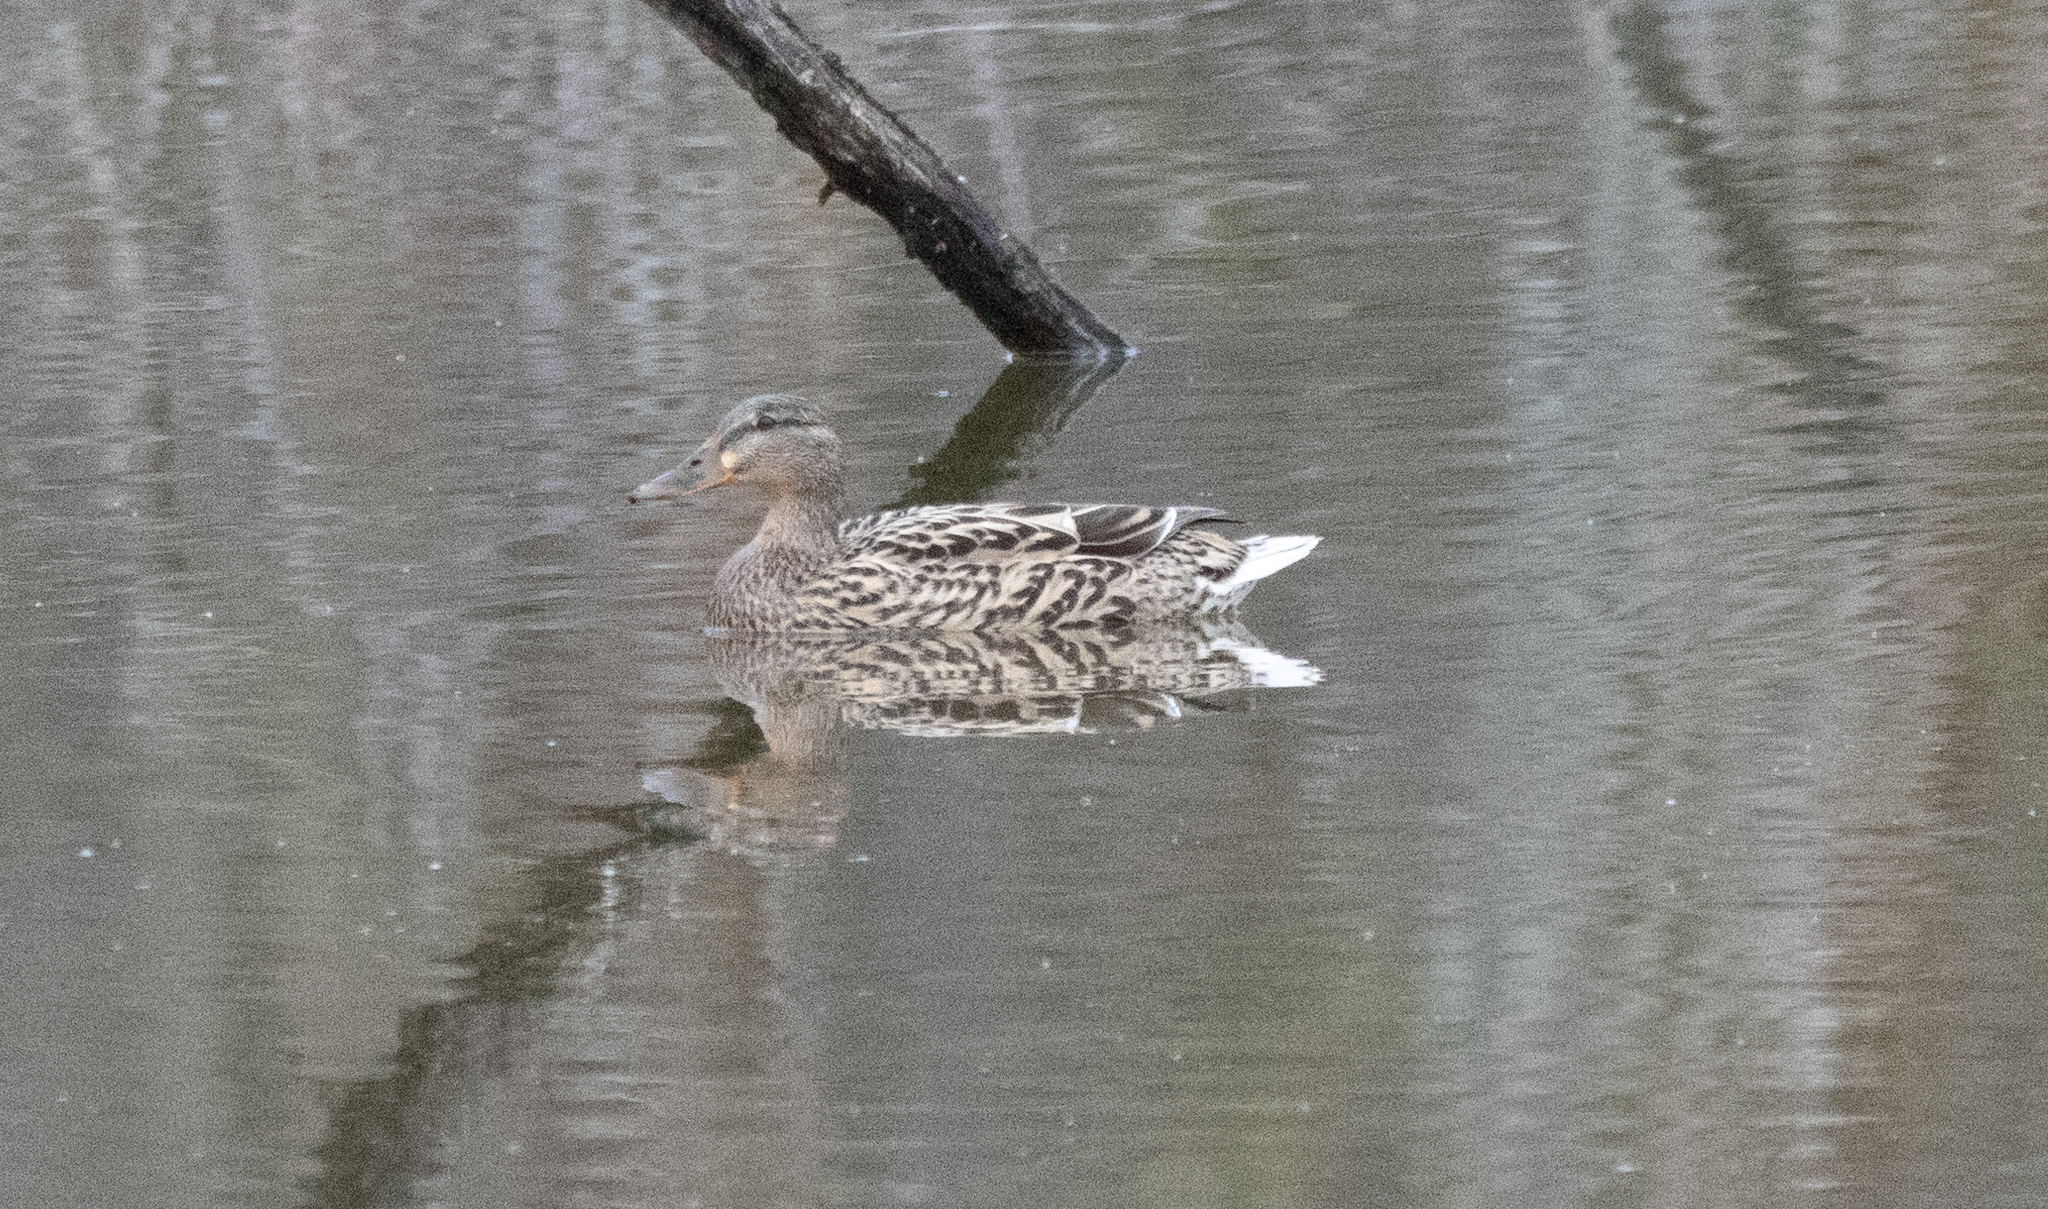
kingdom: Animalia
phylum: Chordata
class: Aves
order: Anseriformes
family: Anatidae
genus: Anas
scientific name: Anas platyrhynchos
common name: Mallard
